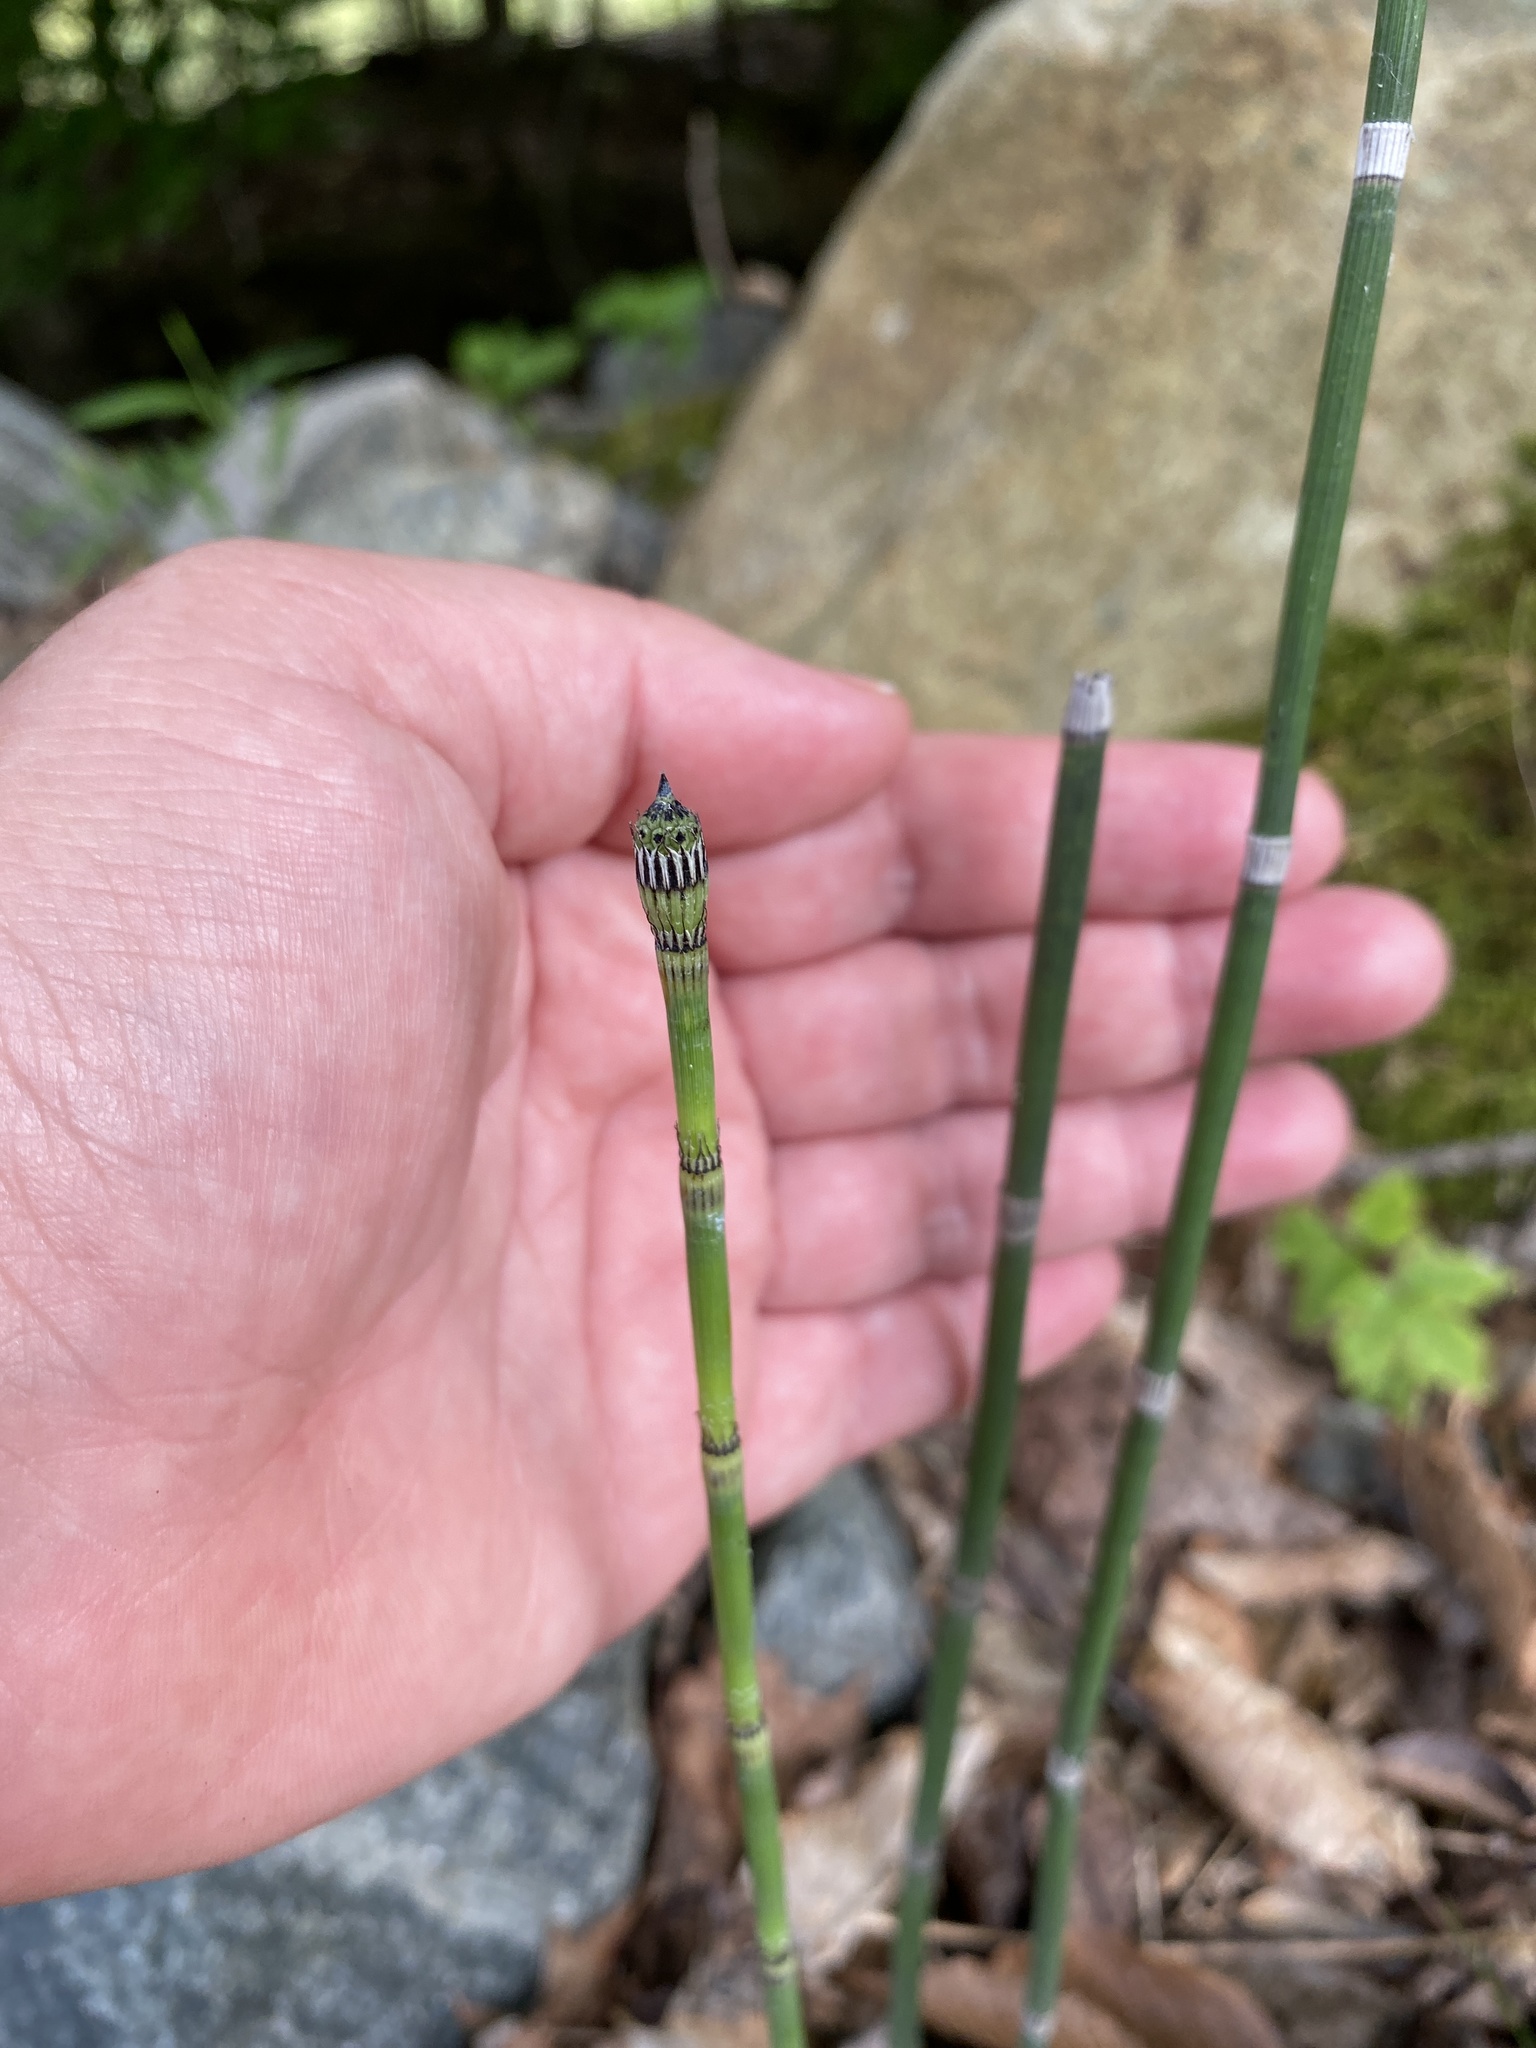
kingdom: Plantae
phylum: Tracheophyta
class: Polypodiopsida
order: Equisetales
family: Equisetaceae
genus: Equisetum
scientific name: Equisetum praealtum
